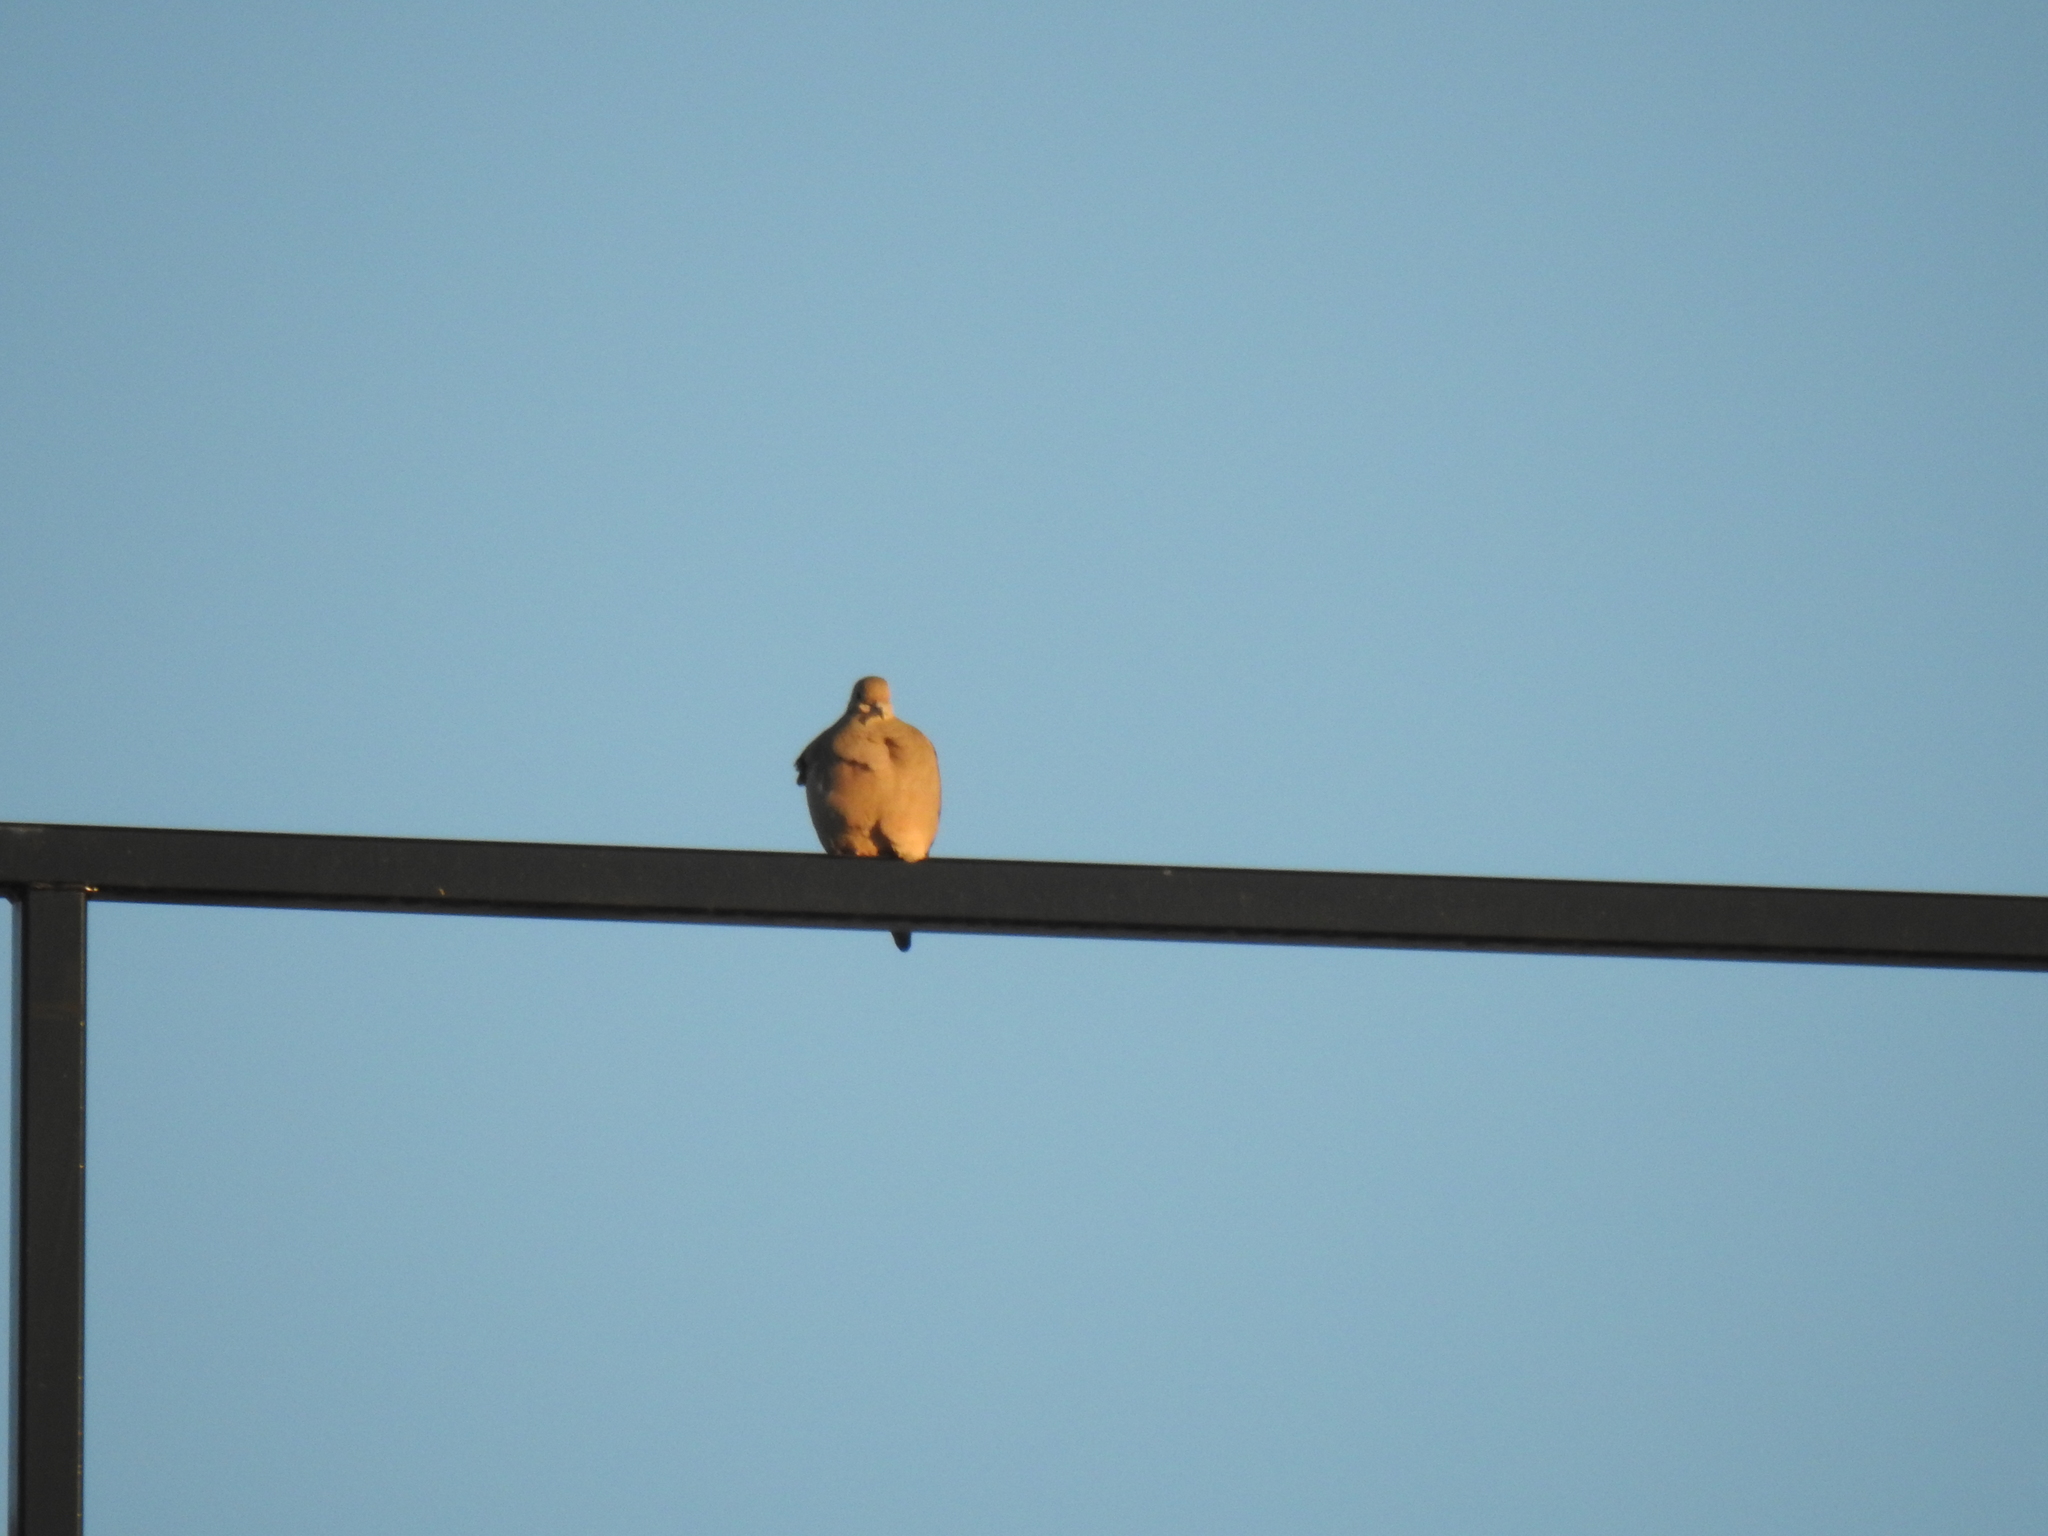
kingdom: Animalia
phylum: Chordata
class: Aves
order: Columbiformes
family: Columbidae
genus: Zenaida
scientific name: Zenaida macroura
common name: Mourning dove
